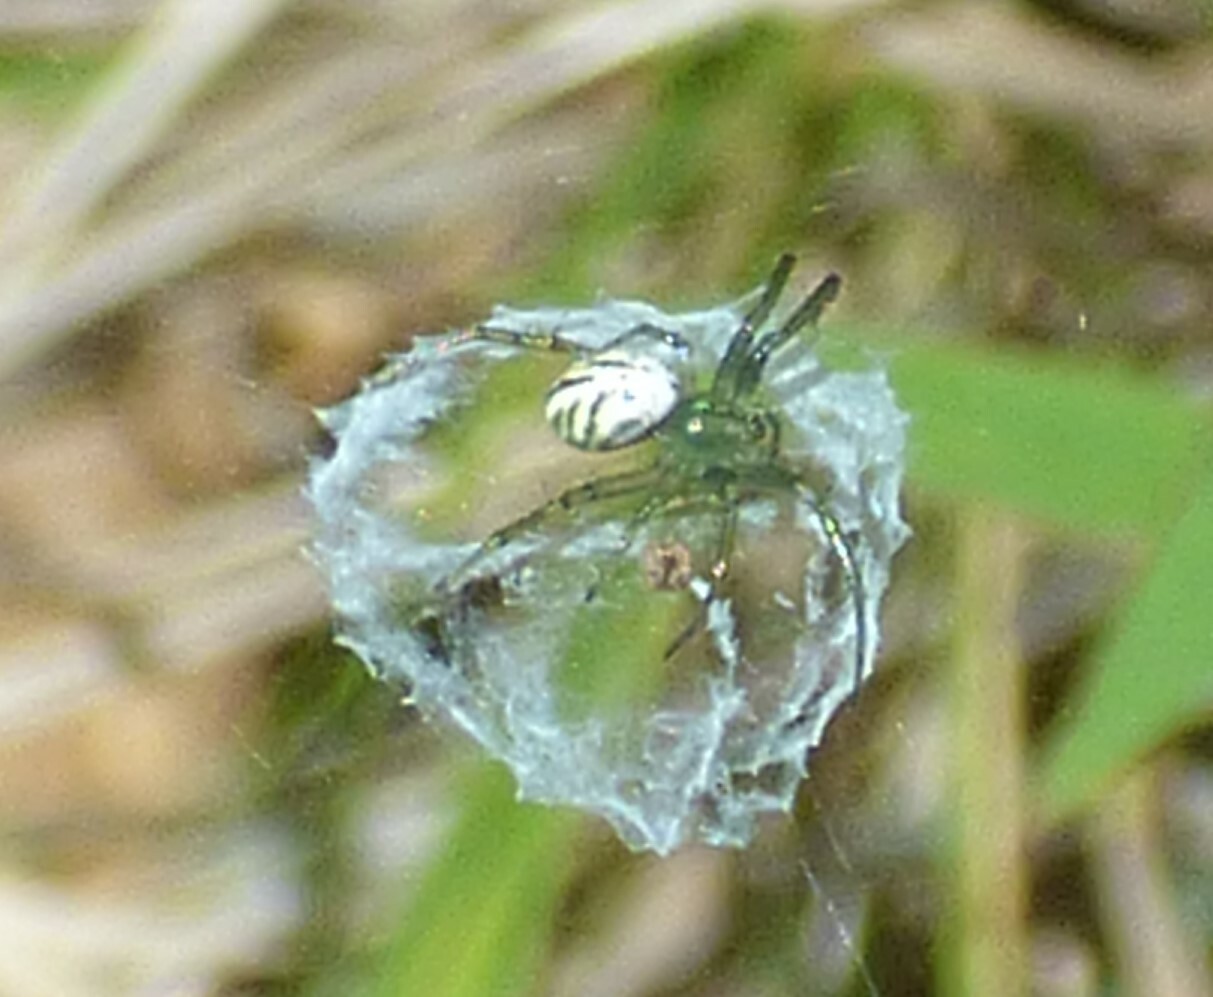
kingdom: Animalia
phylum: Arthropoda
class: Arachnida
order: Araneae
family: Araneidae
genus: Mangora
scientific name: Mangora gibberosa
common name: Lined orbweaver
